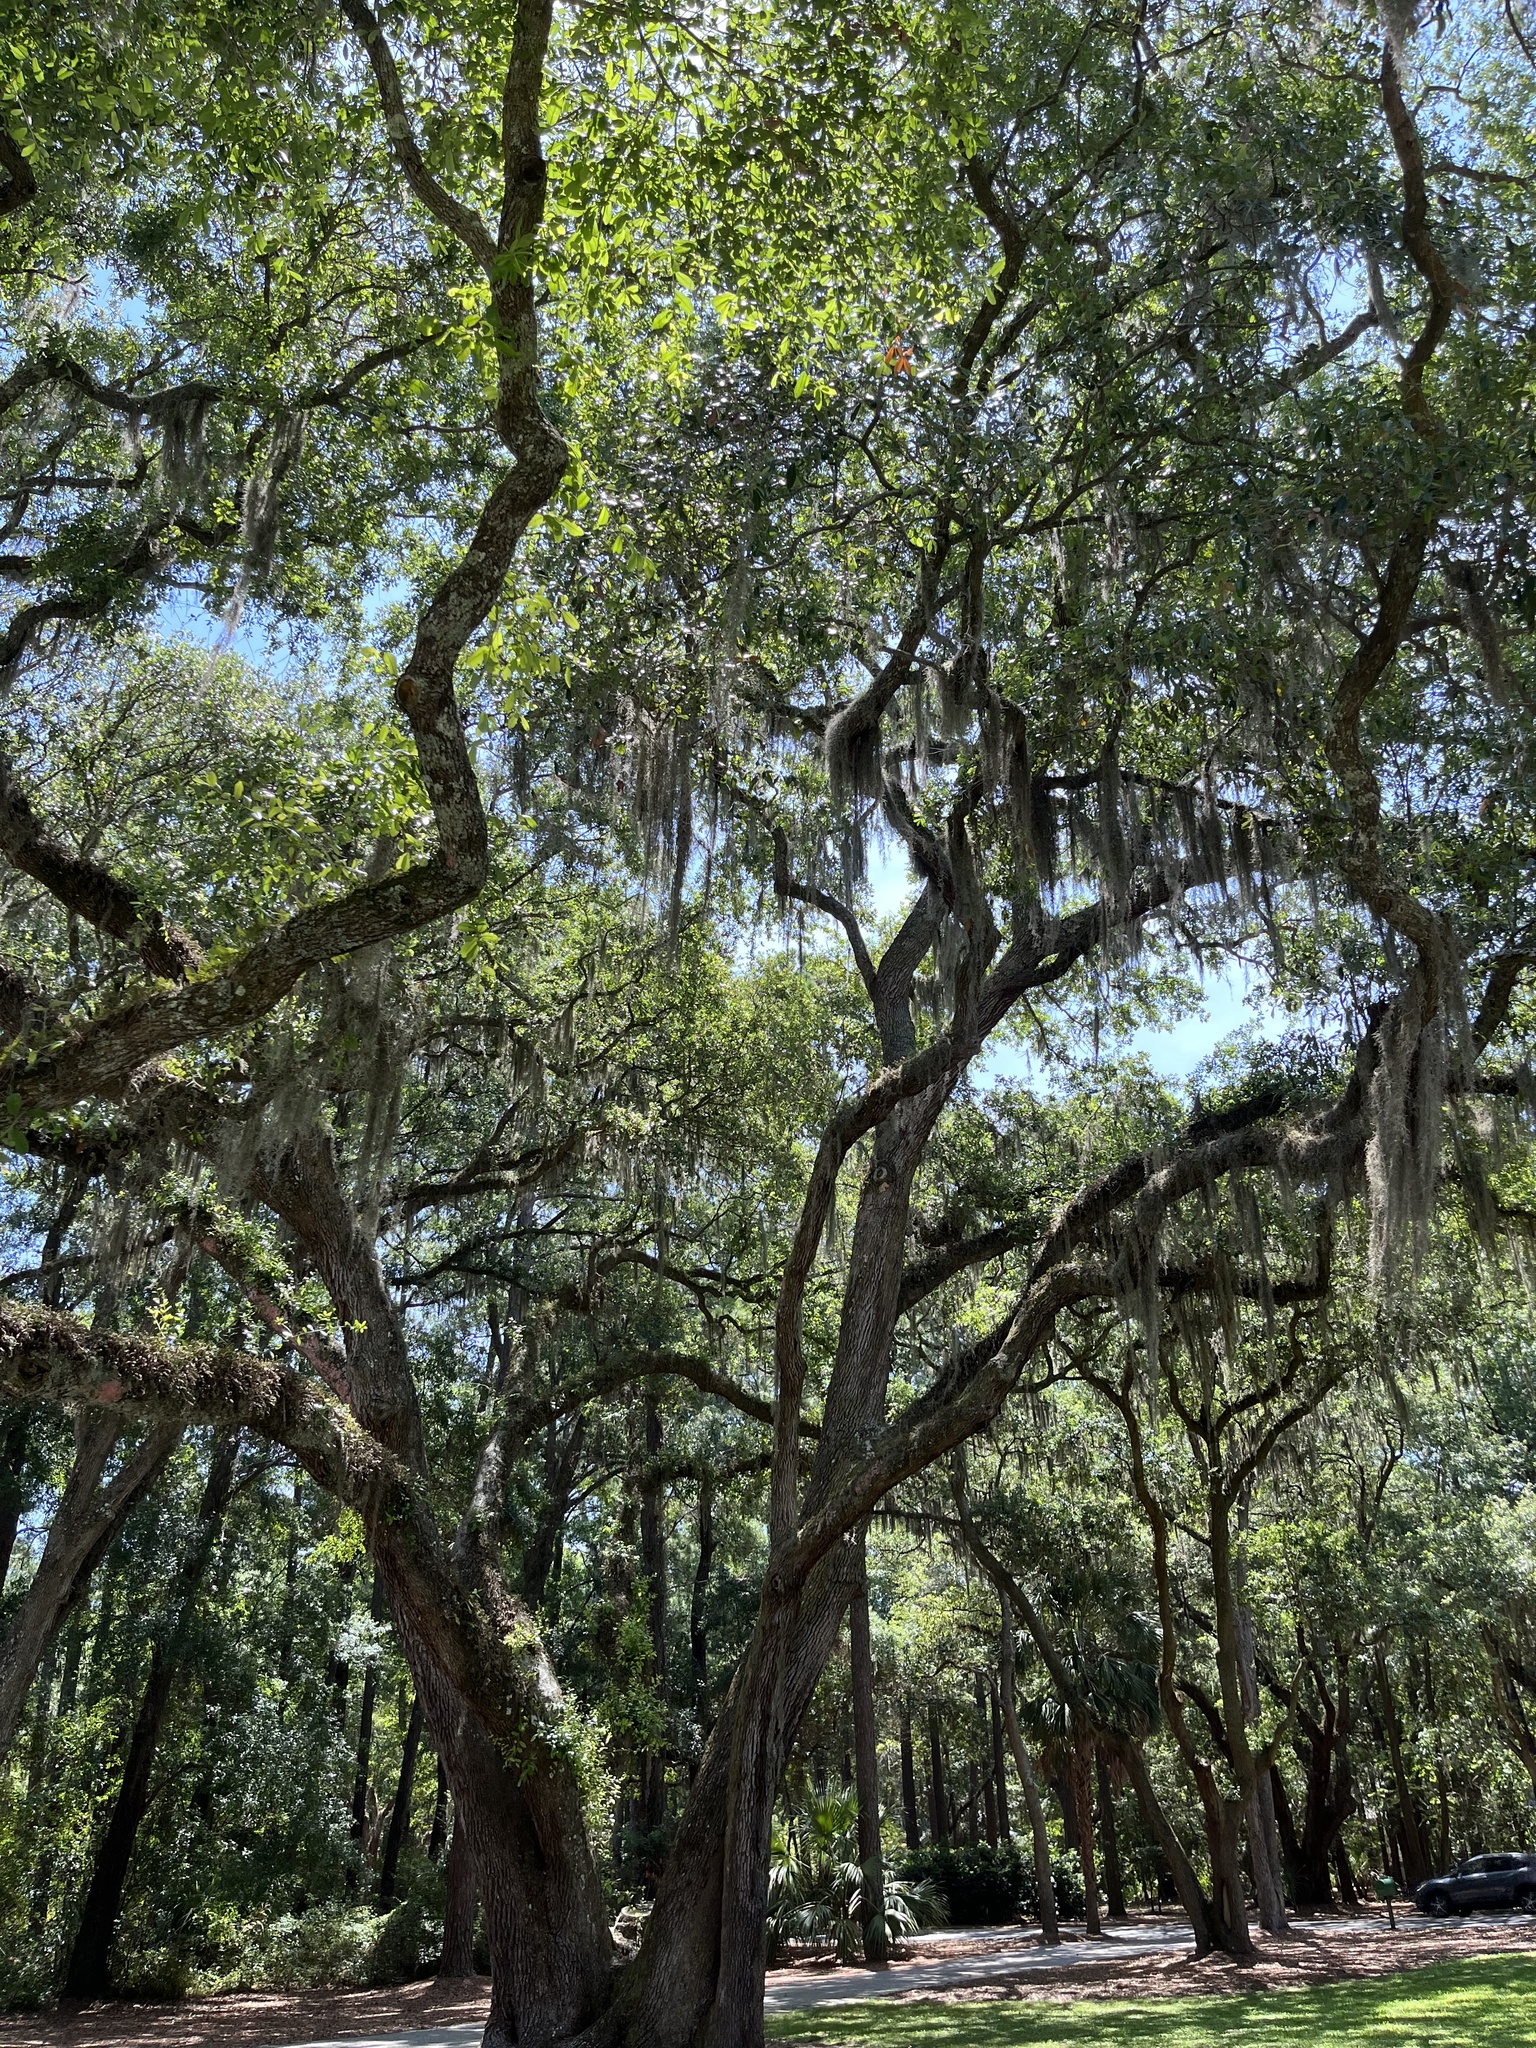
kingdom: Plantae
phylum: Tracheophyta
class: Liliopsida
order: Poales
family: Bromeliaceae
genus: Tillandsia
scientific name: Tillandsia usneoides
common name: Spanish moss
